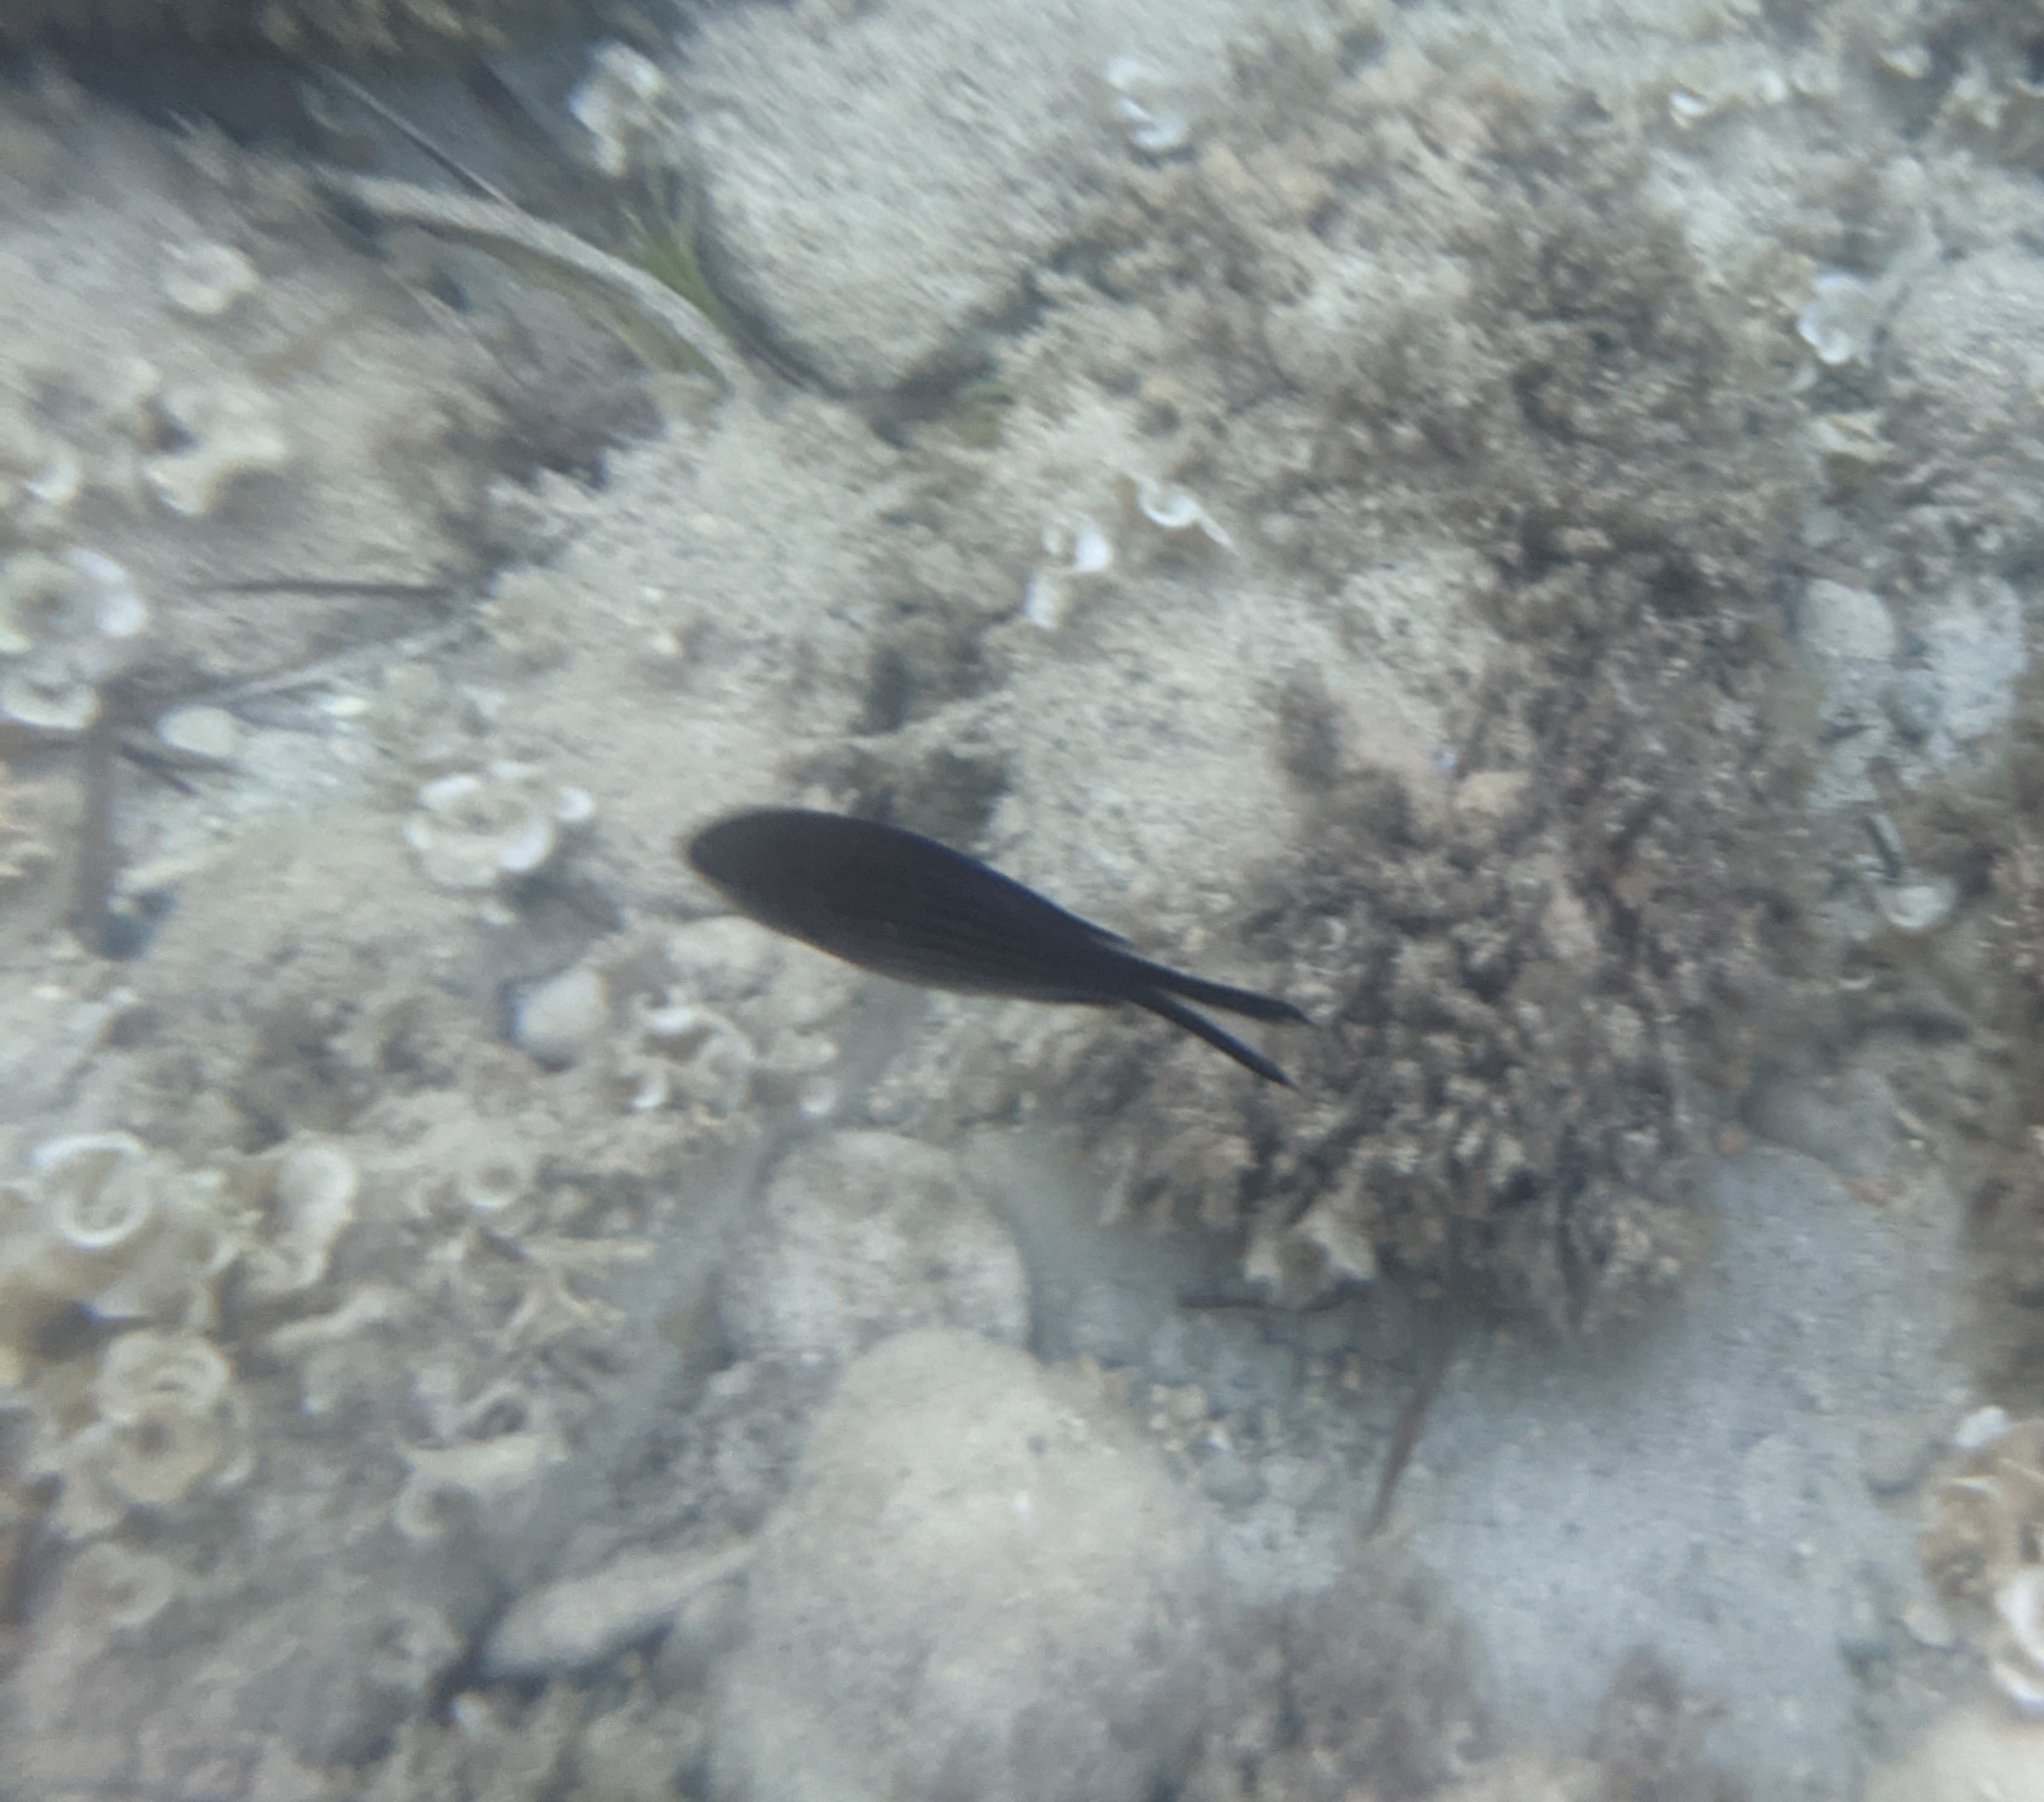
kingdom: Animalia
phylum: Chordata
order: Perciformes
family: Pomacentridae
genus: Chromis
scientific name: Chromis chromis
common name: Damselfish
